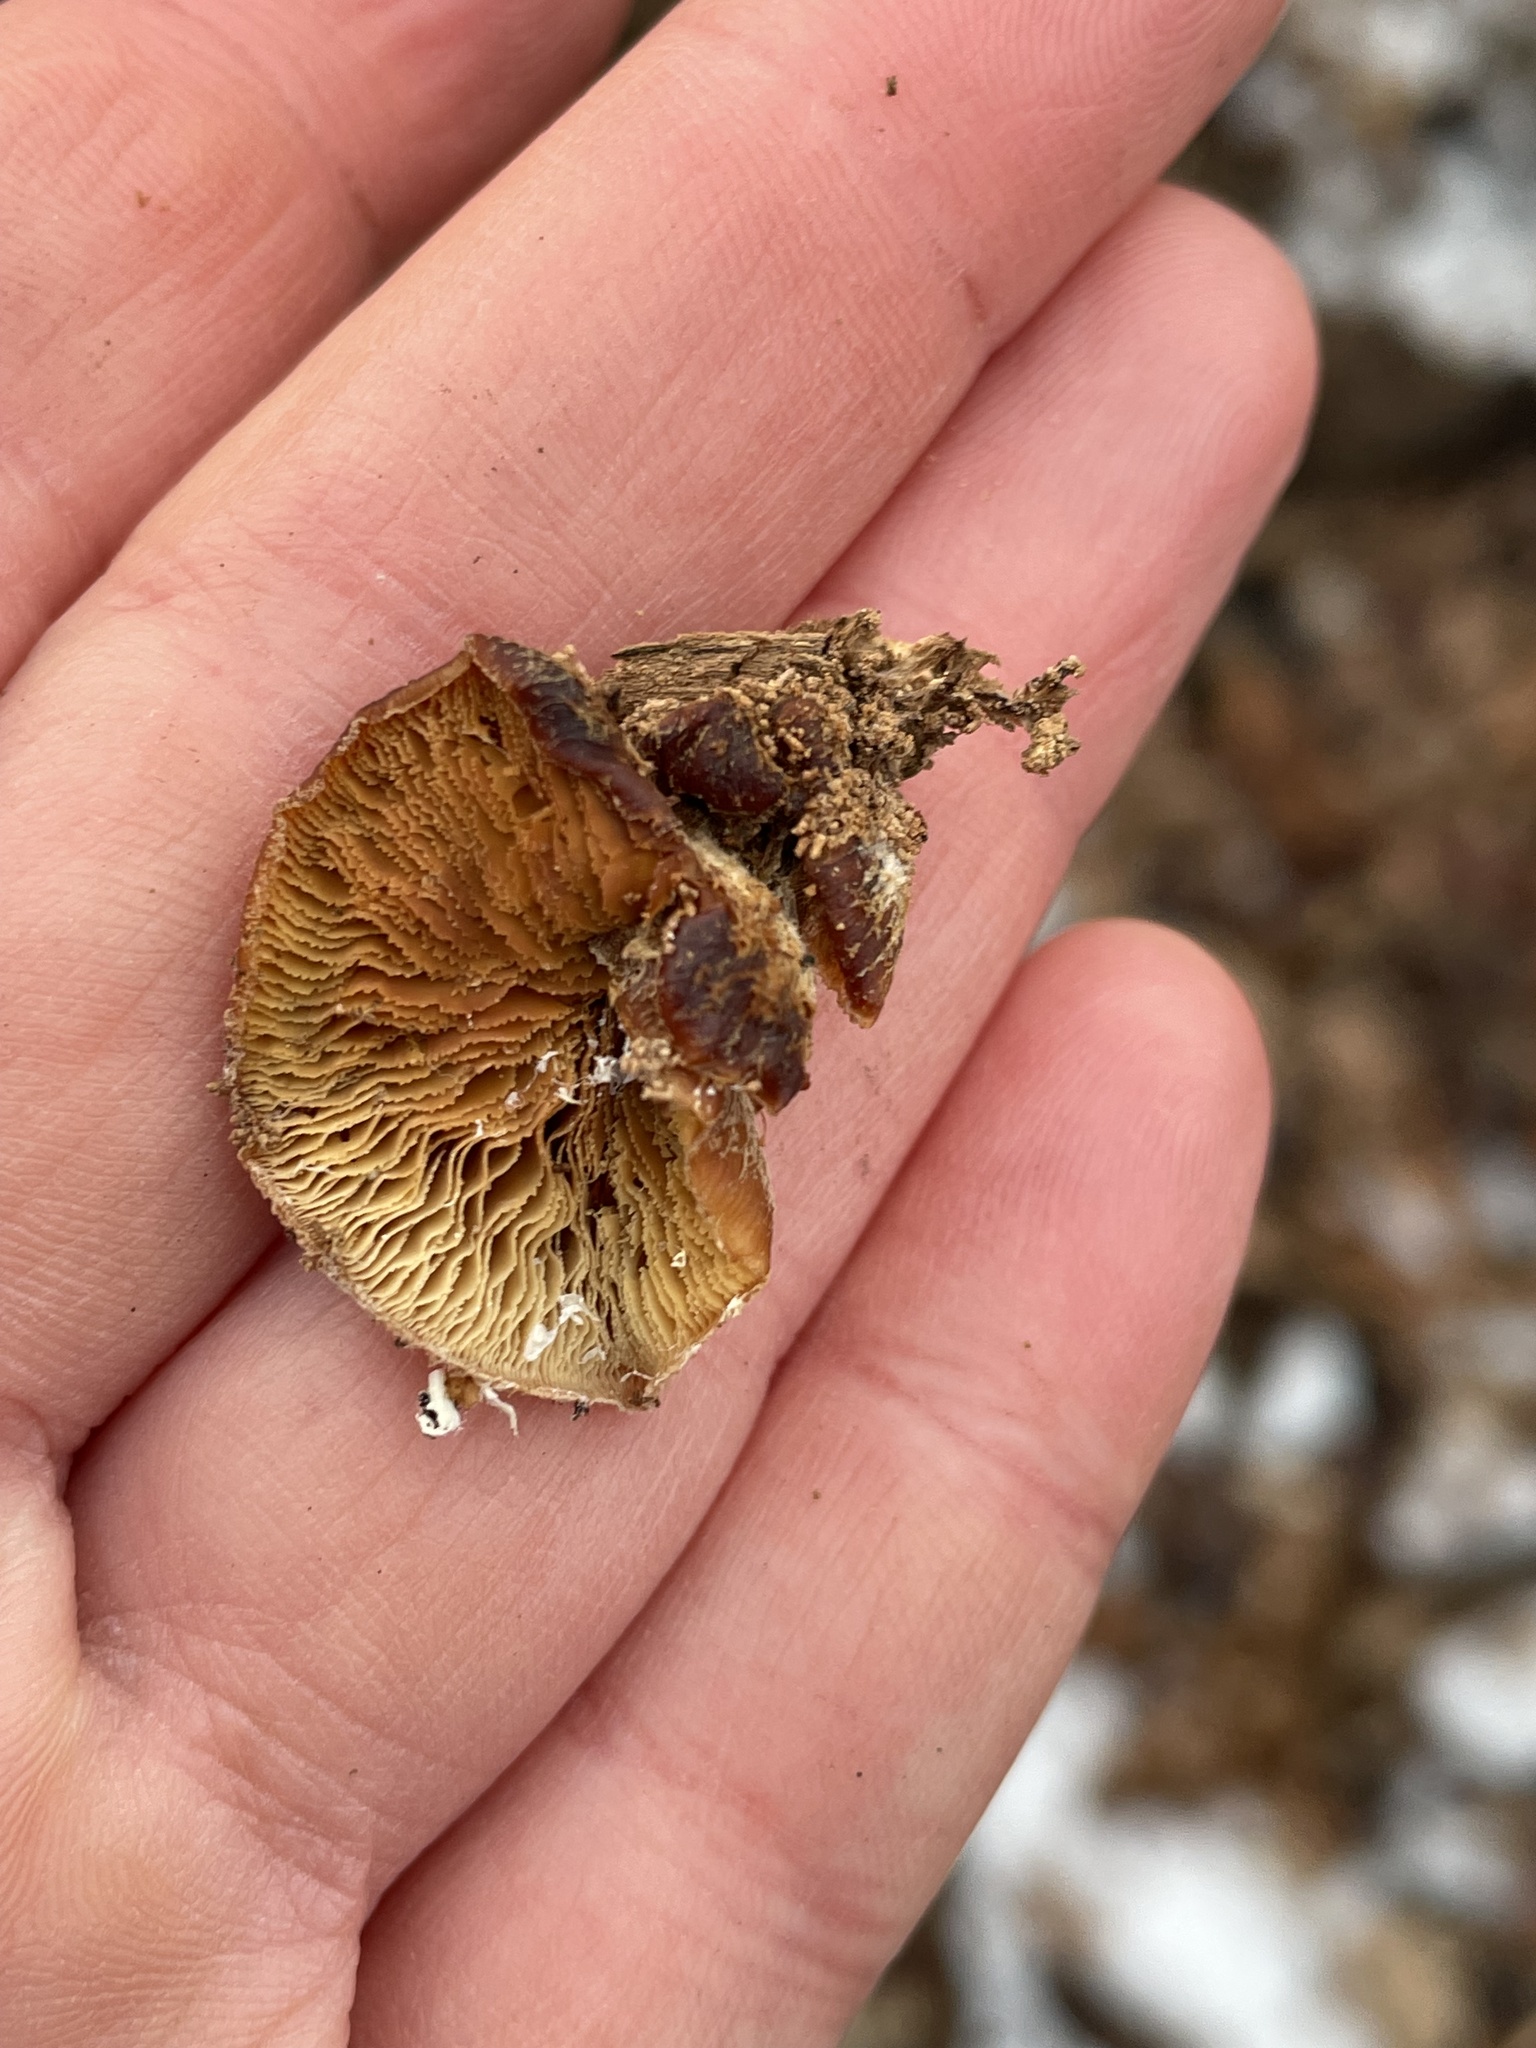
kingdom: Fungi
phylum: Basidiomycota
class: Agaricomycetes
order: Russulales
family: Auriscalpiaceae
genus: Lentinellus
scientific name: Lentinellus ursinus
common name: Bear lentinus
